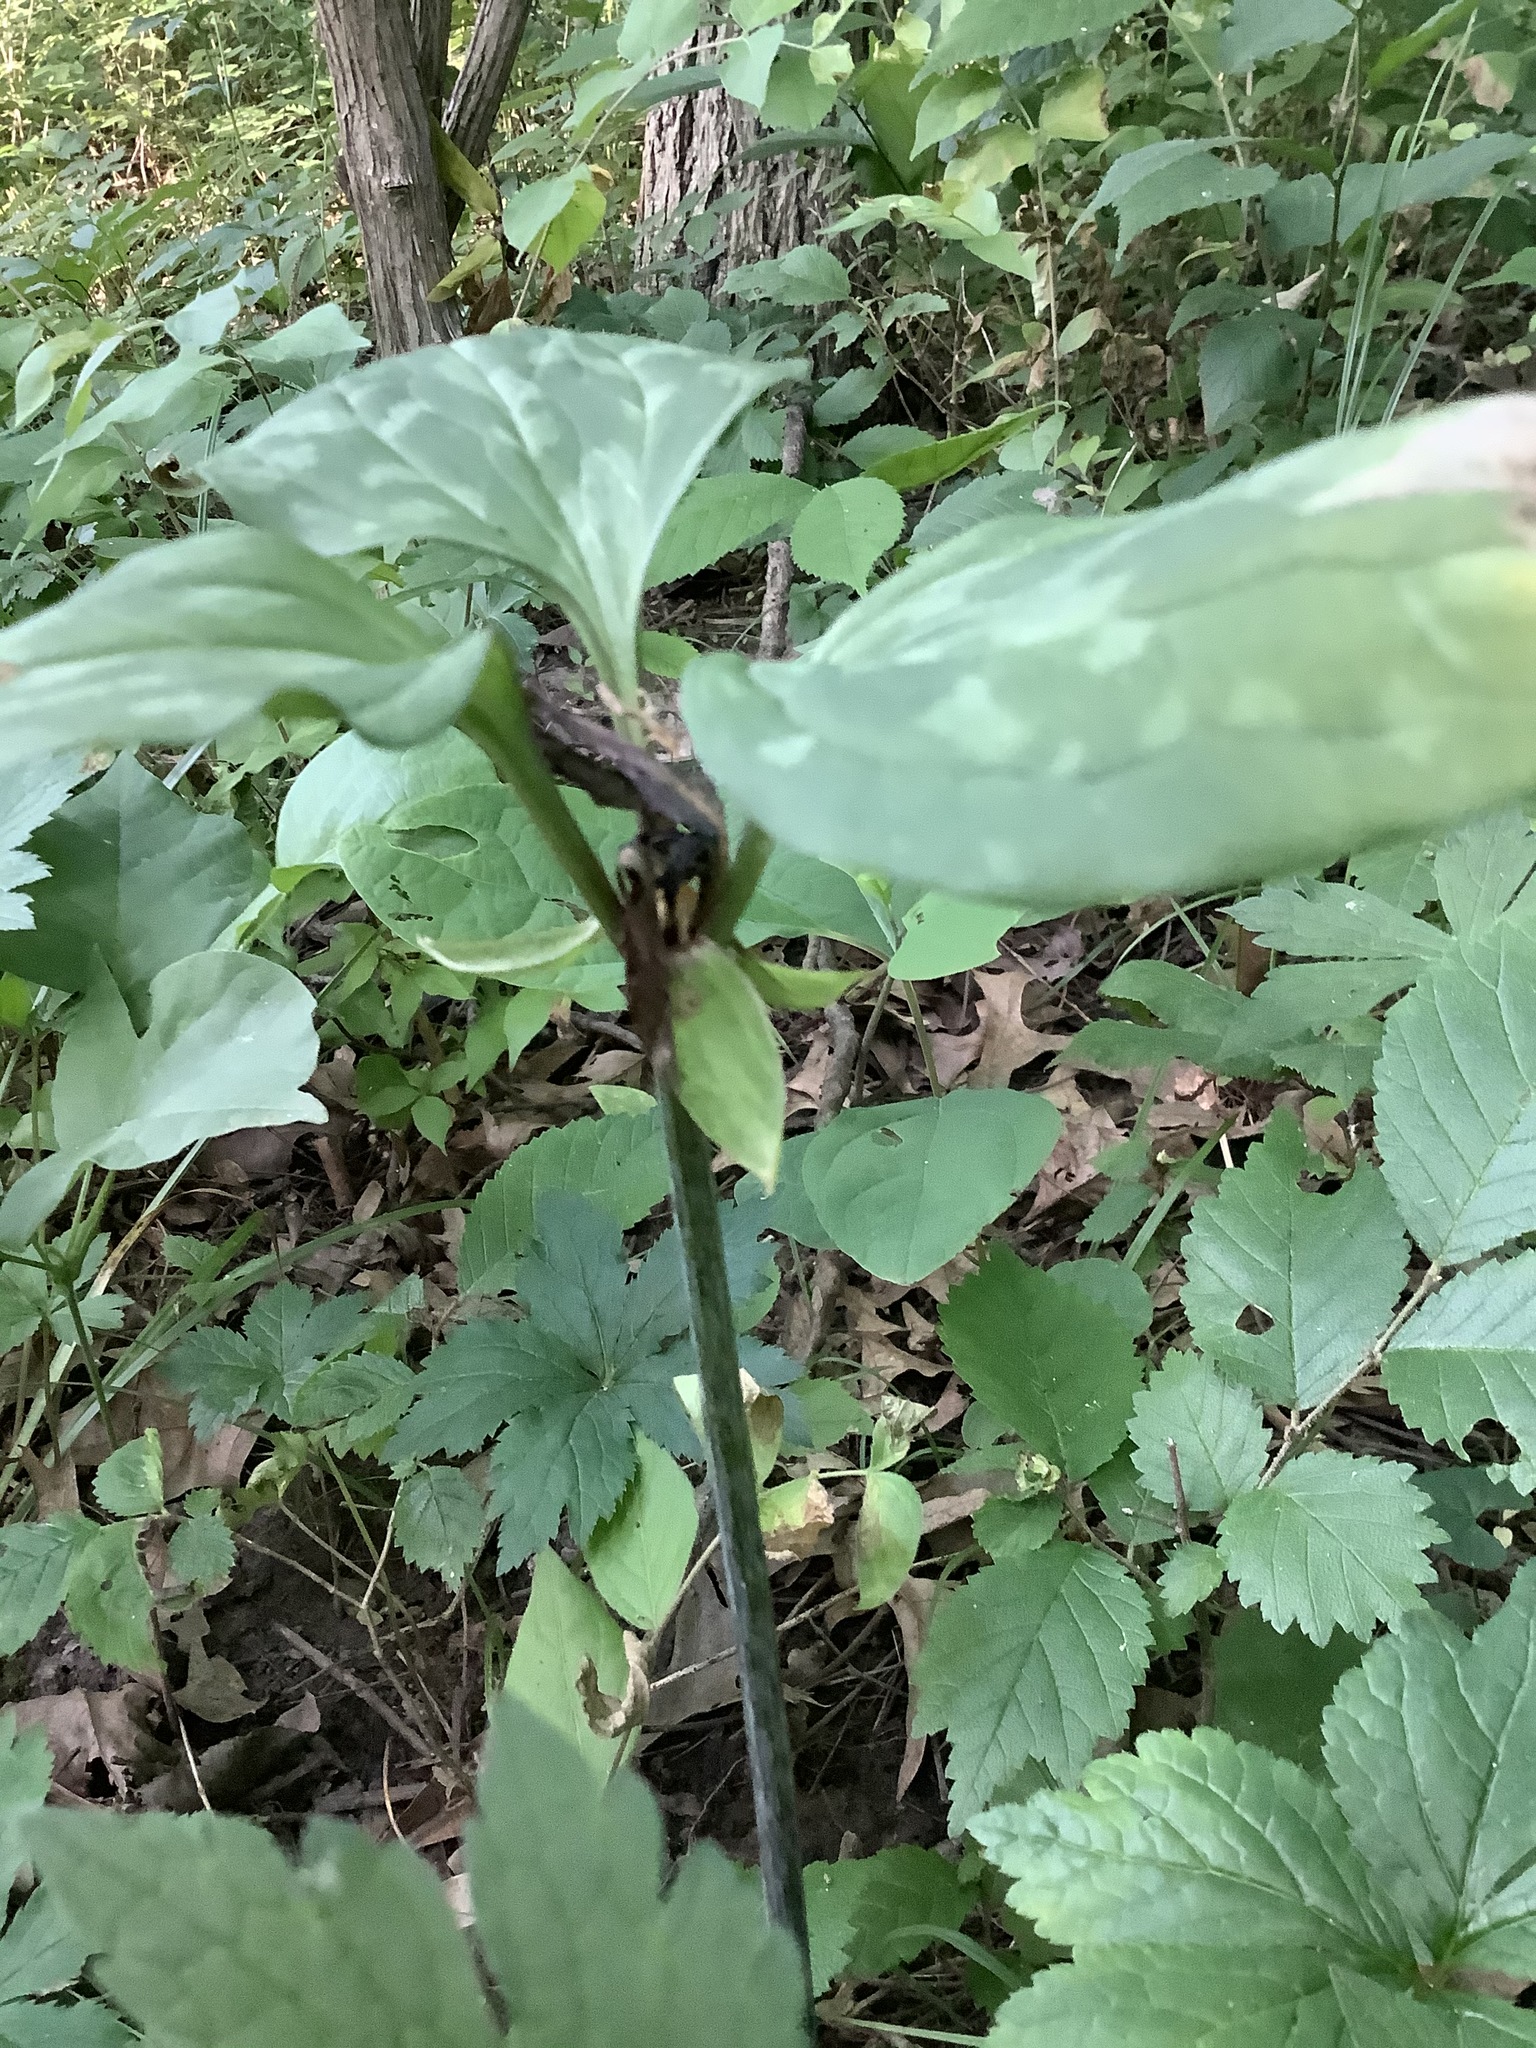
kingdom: Plantae
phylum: Tracheophyta
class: Liliopsida
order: Liliales
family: Melanthiaceae
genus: Trillium
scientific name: Trillium recurvatum
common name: Bloody butcher
